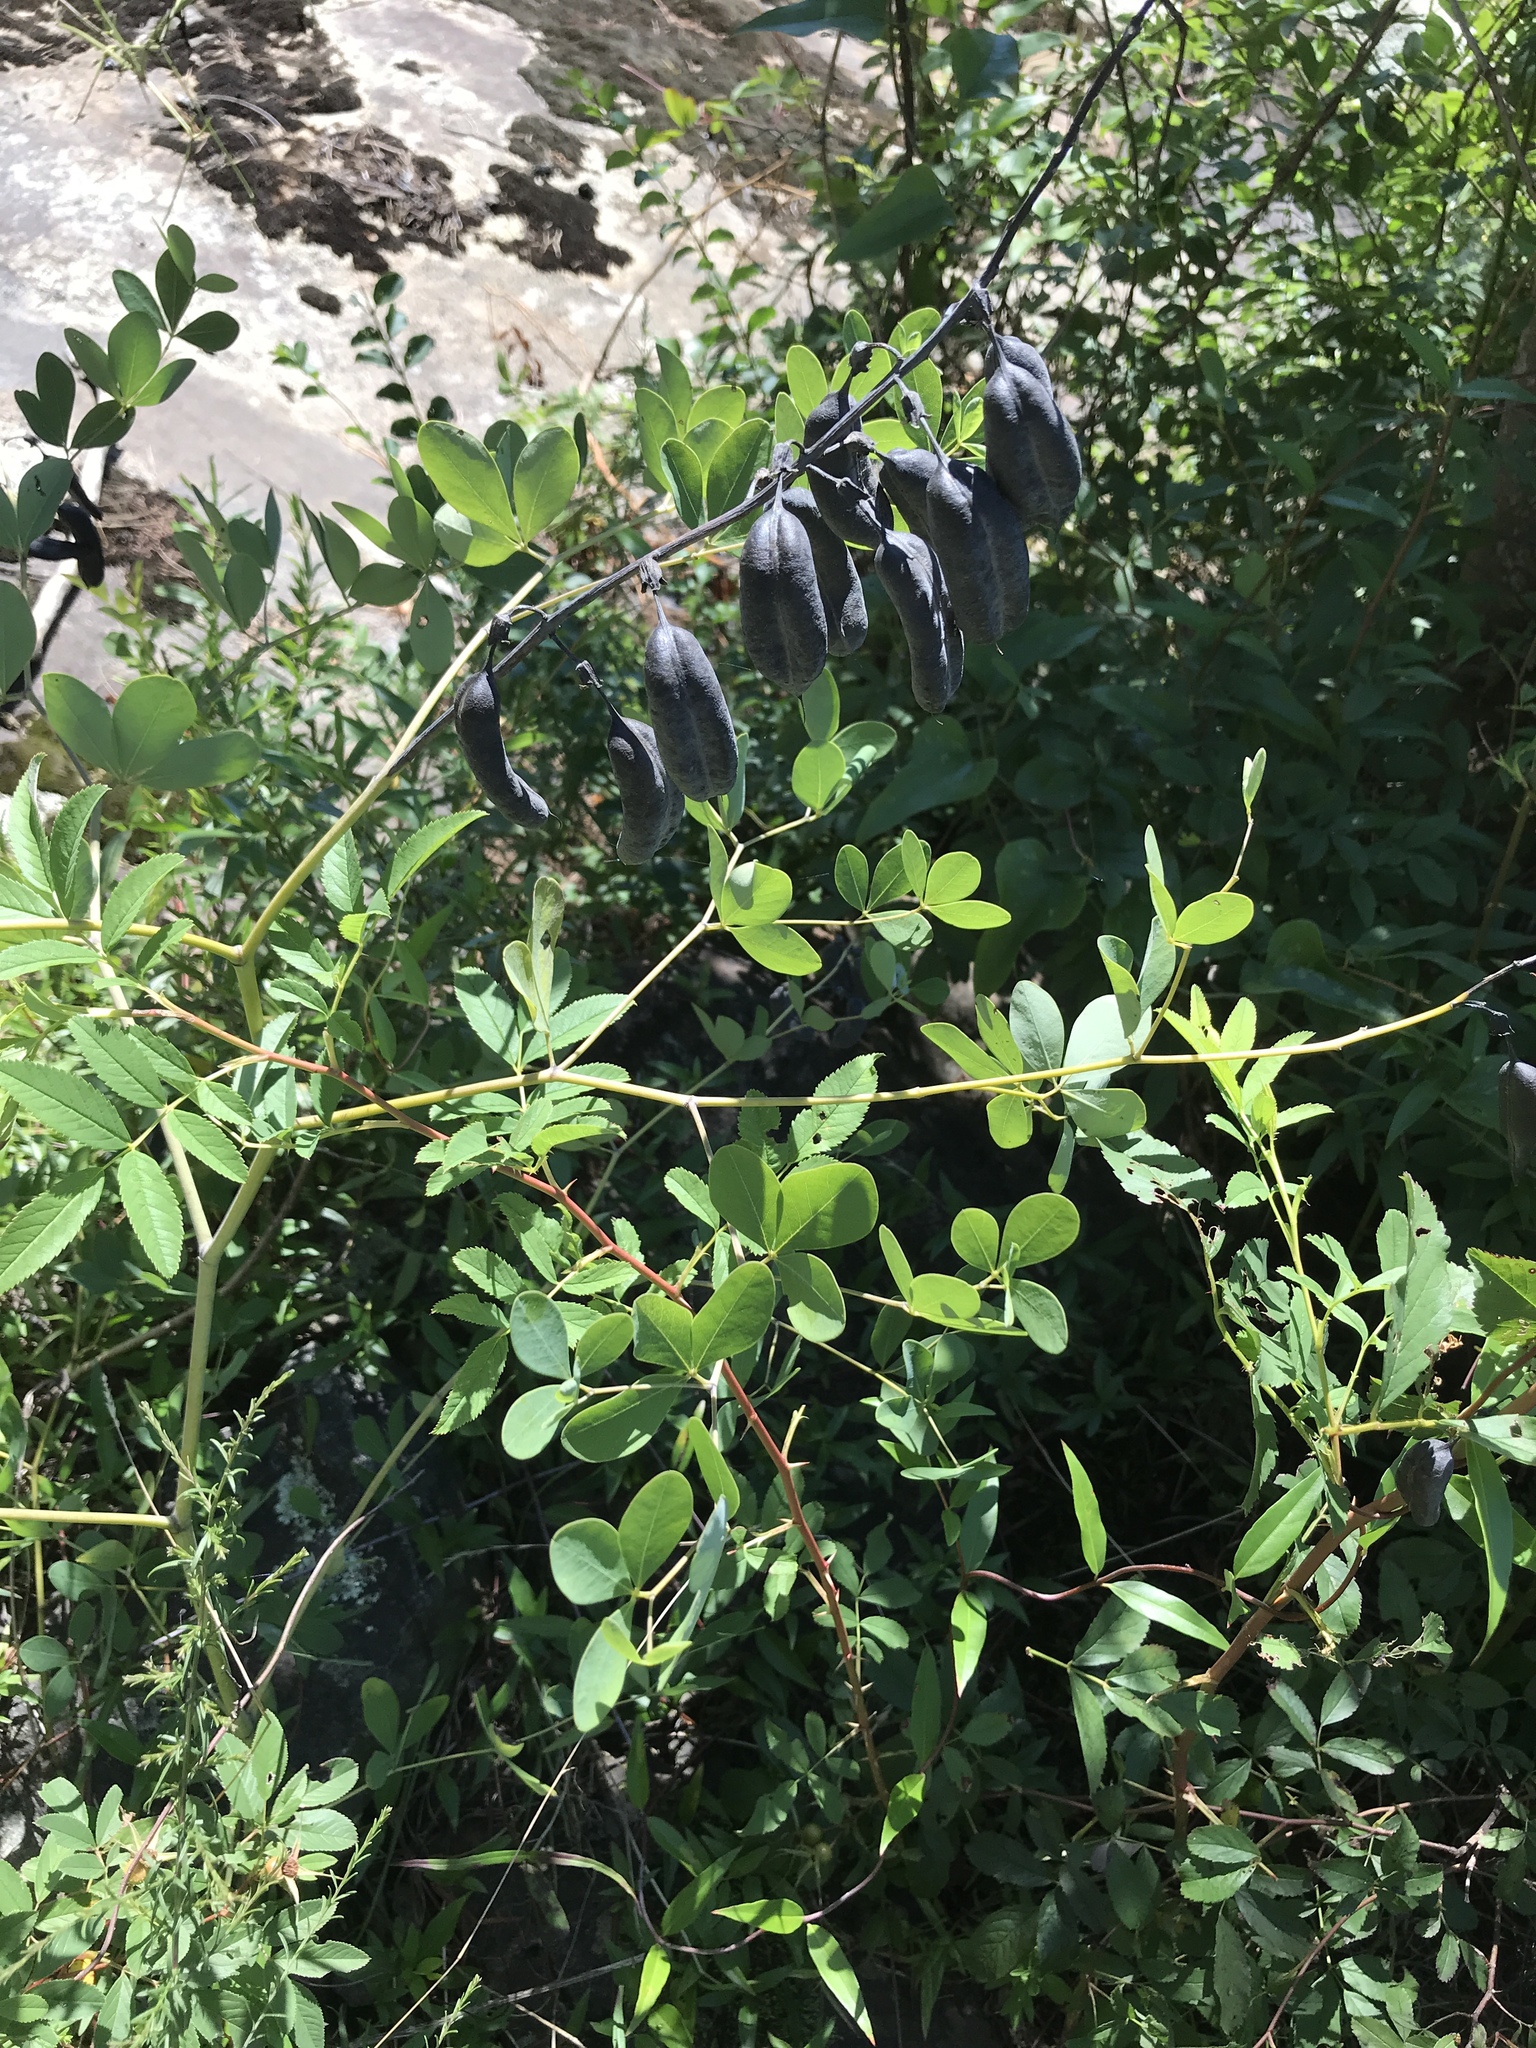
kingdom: Plantae
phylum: Tracheophyta
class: Magnoliopsida
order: Fabales
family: Fabaceae
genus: Baptisia
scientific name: Baptisia alba
